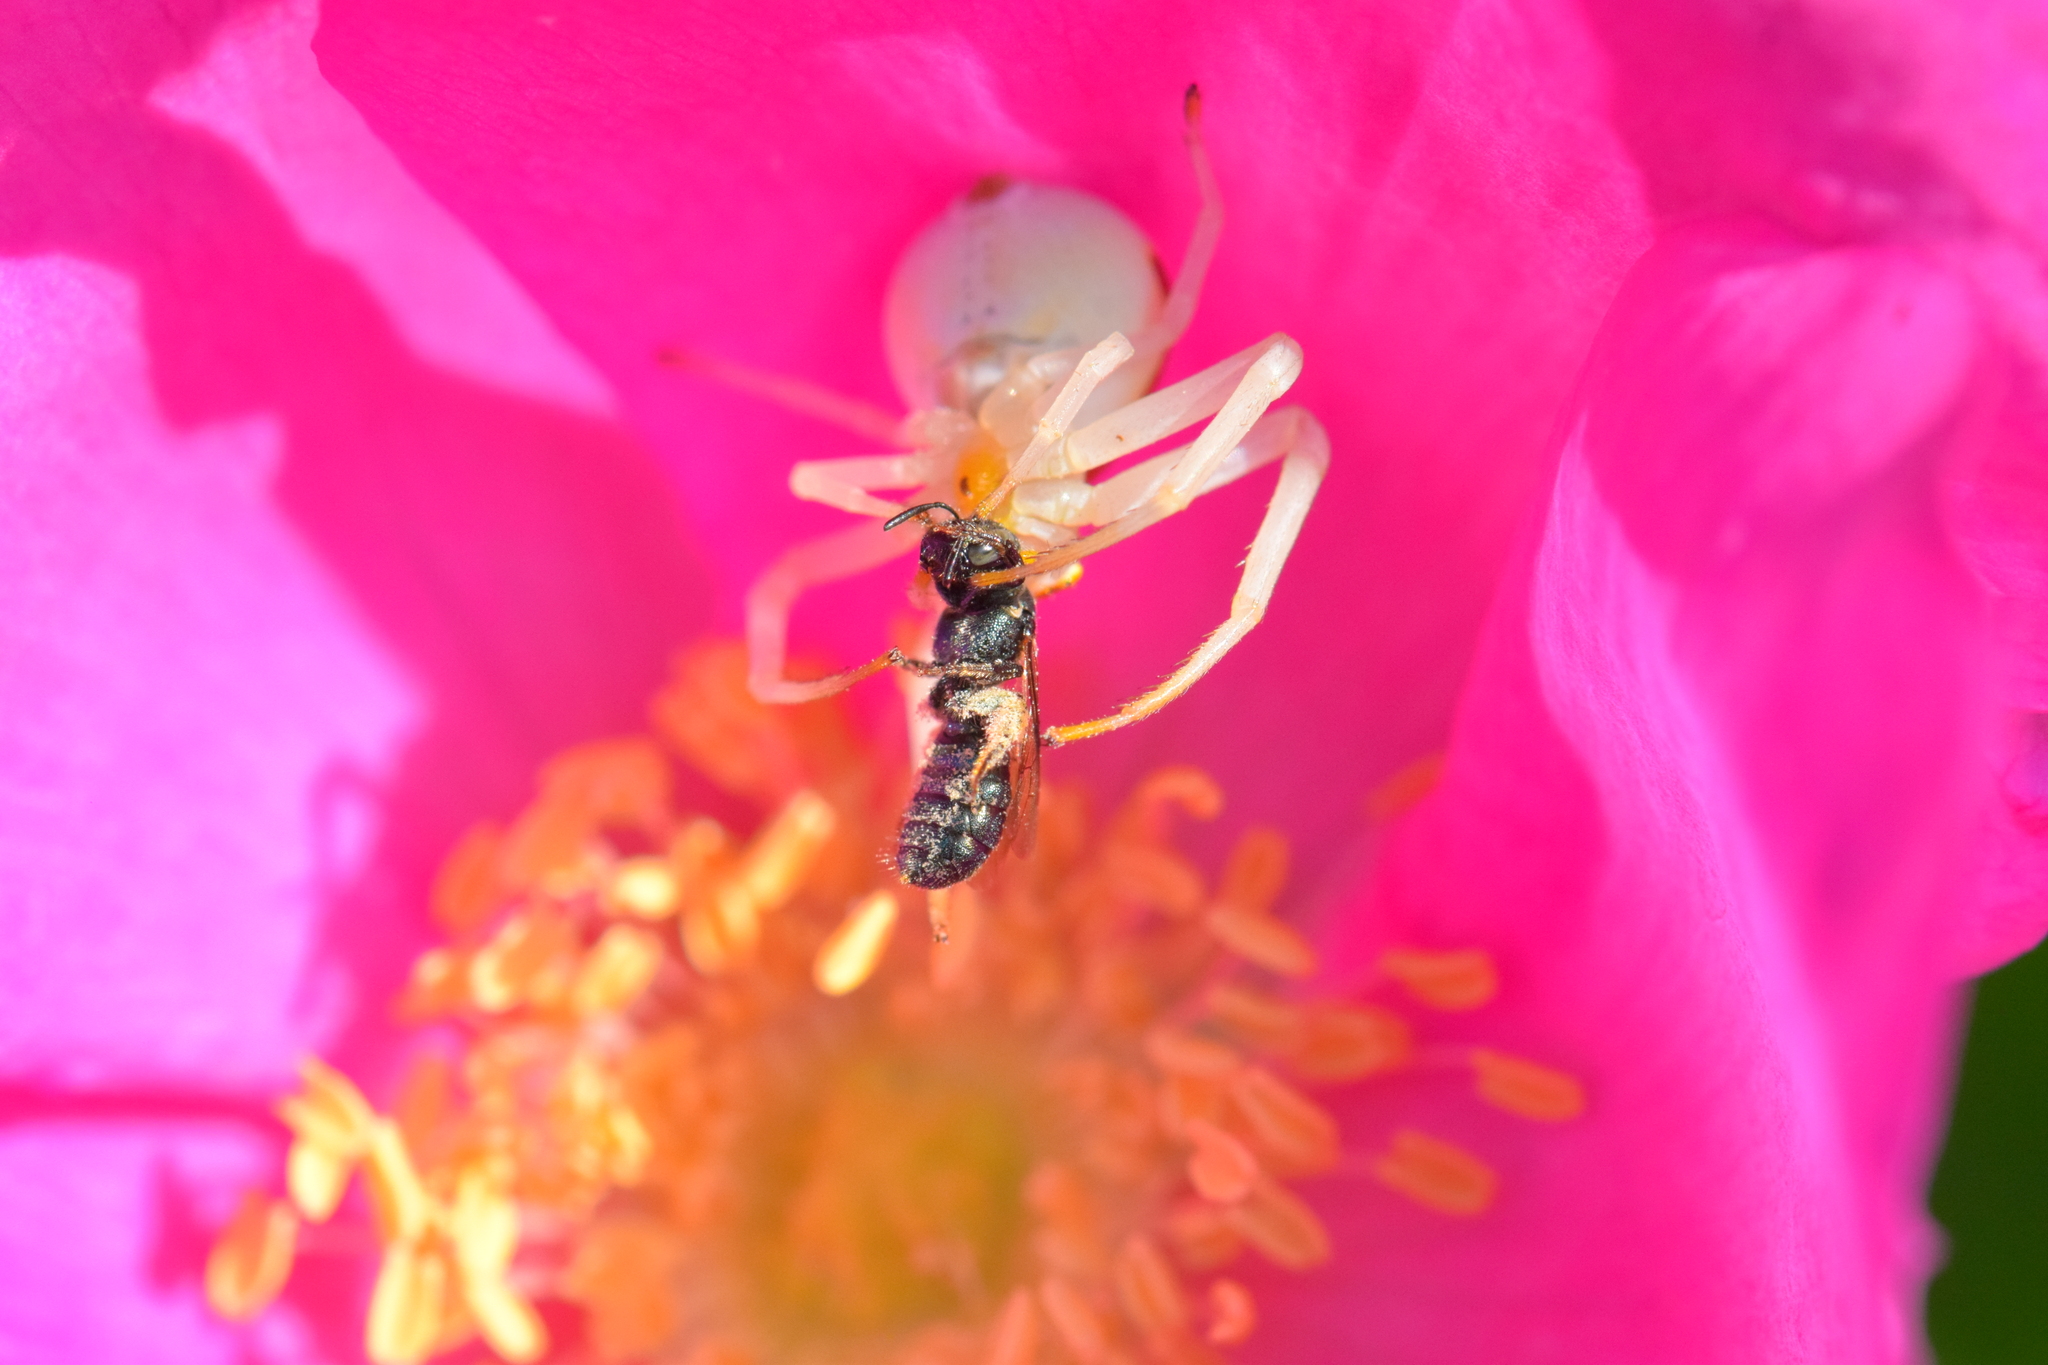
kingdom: Animalia
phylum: Arthropoda
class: Arachnida
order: Araneae
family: Thomisidae
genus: Misumena
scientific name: Misumena vatia
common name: Goldenrod crab spider
